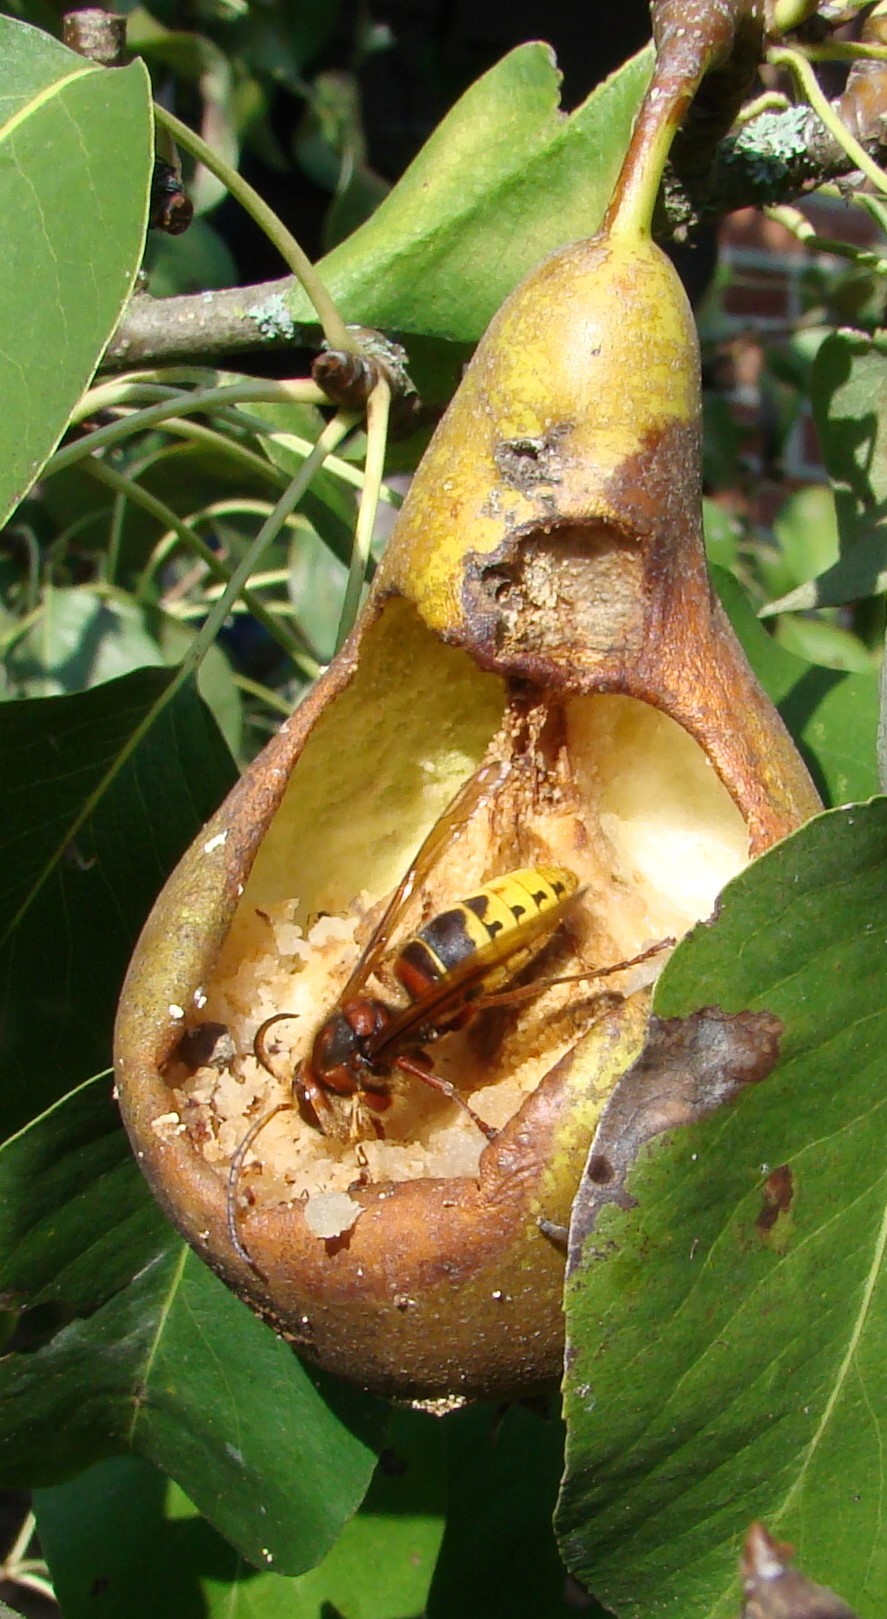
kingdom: Animalia
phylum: Arthropoda
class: Insecta
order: Hymenoptera
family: Vespidae
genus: Vespa
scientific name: Vespa crabro
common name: Hornet
